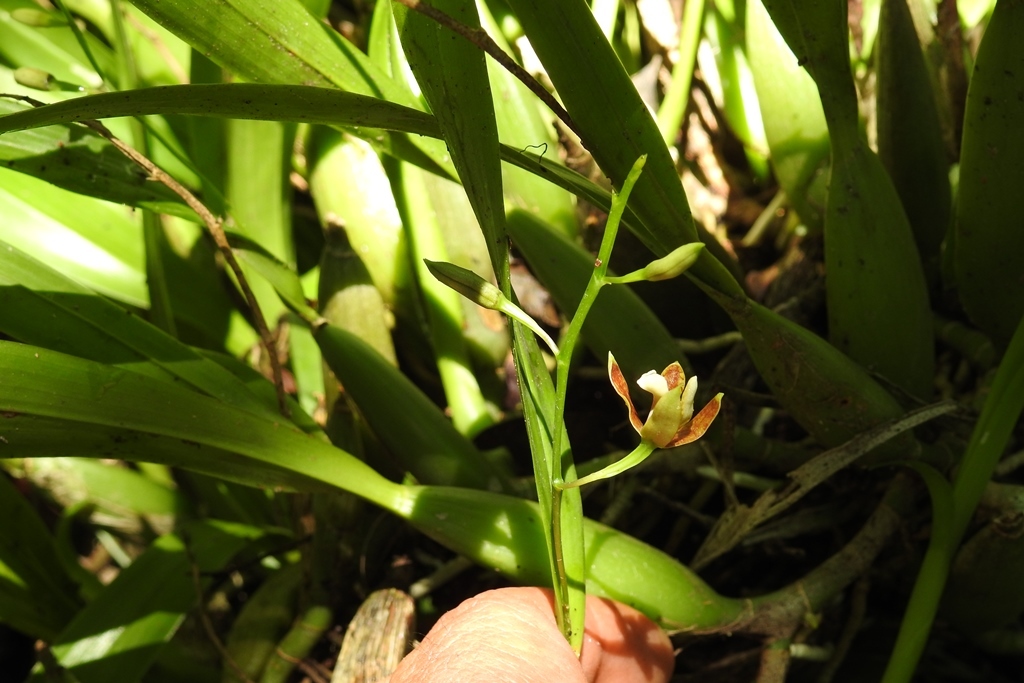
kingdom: Plantae
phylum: Tracheophyta
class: Liliopsida
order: Asparagales
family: Orchidaceae
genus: Prosthechea
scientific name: Prosthechea livida
